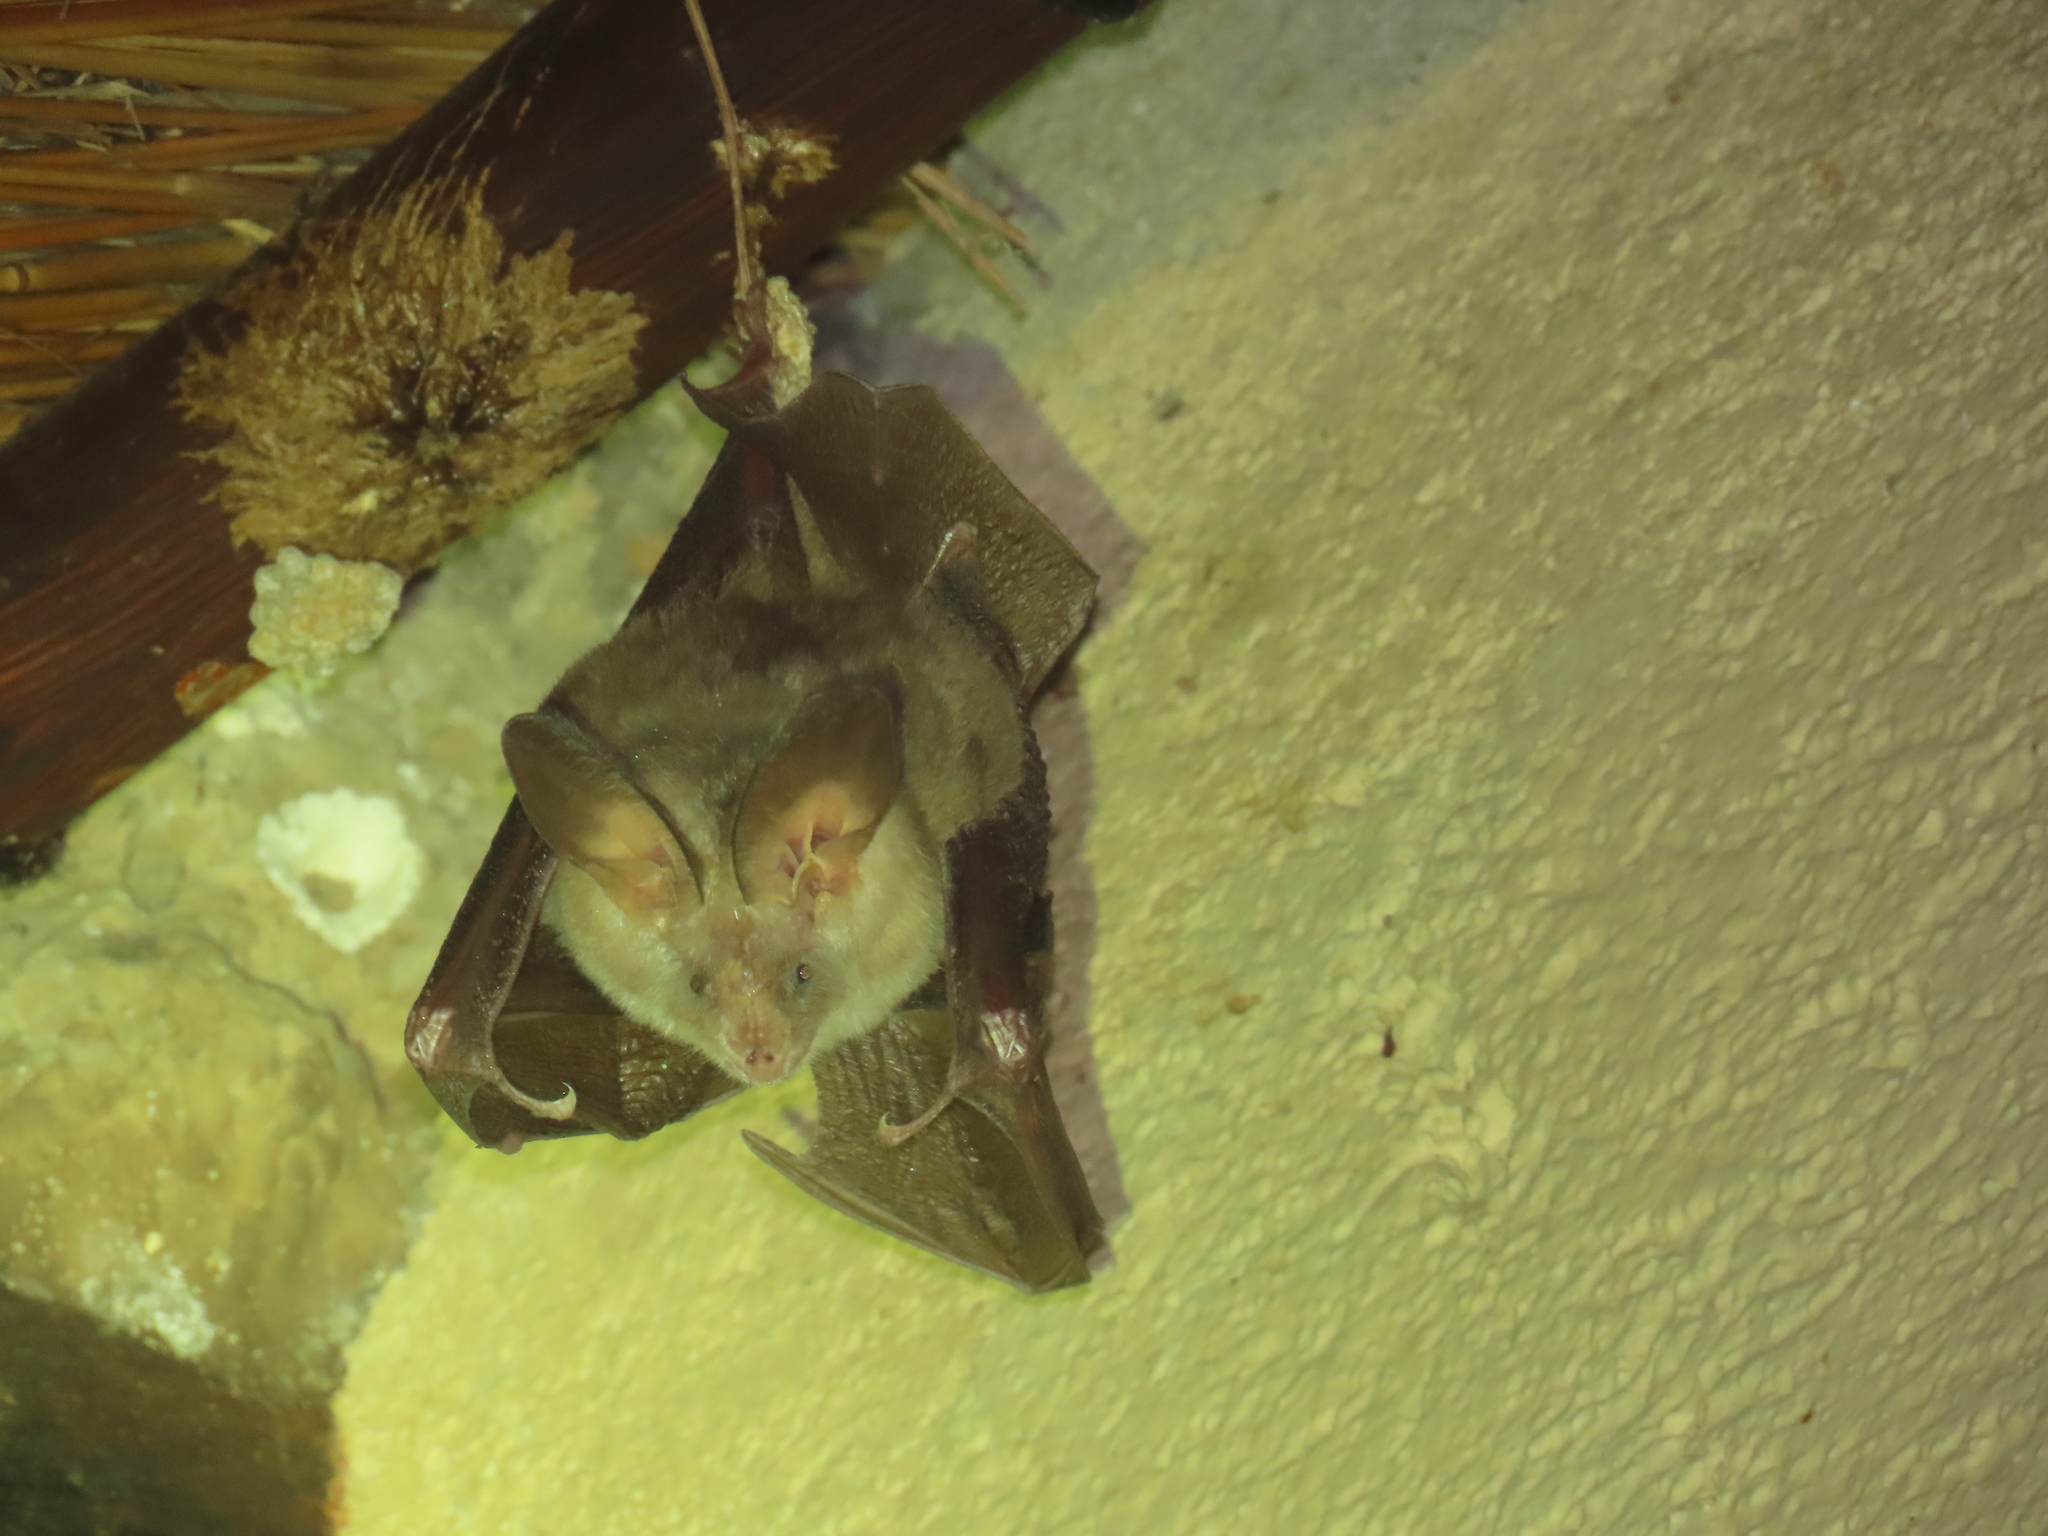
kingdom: Animalia
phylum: Chordata
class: Mammalia
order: Chiroptera
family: Nycteridae
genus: Nycteris
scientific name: Nycteris thebaica
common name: Egyptian slit-faced bat
